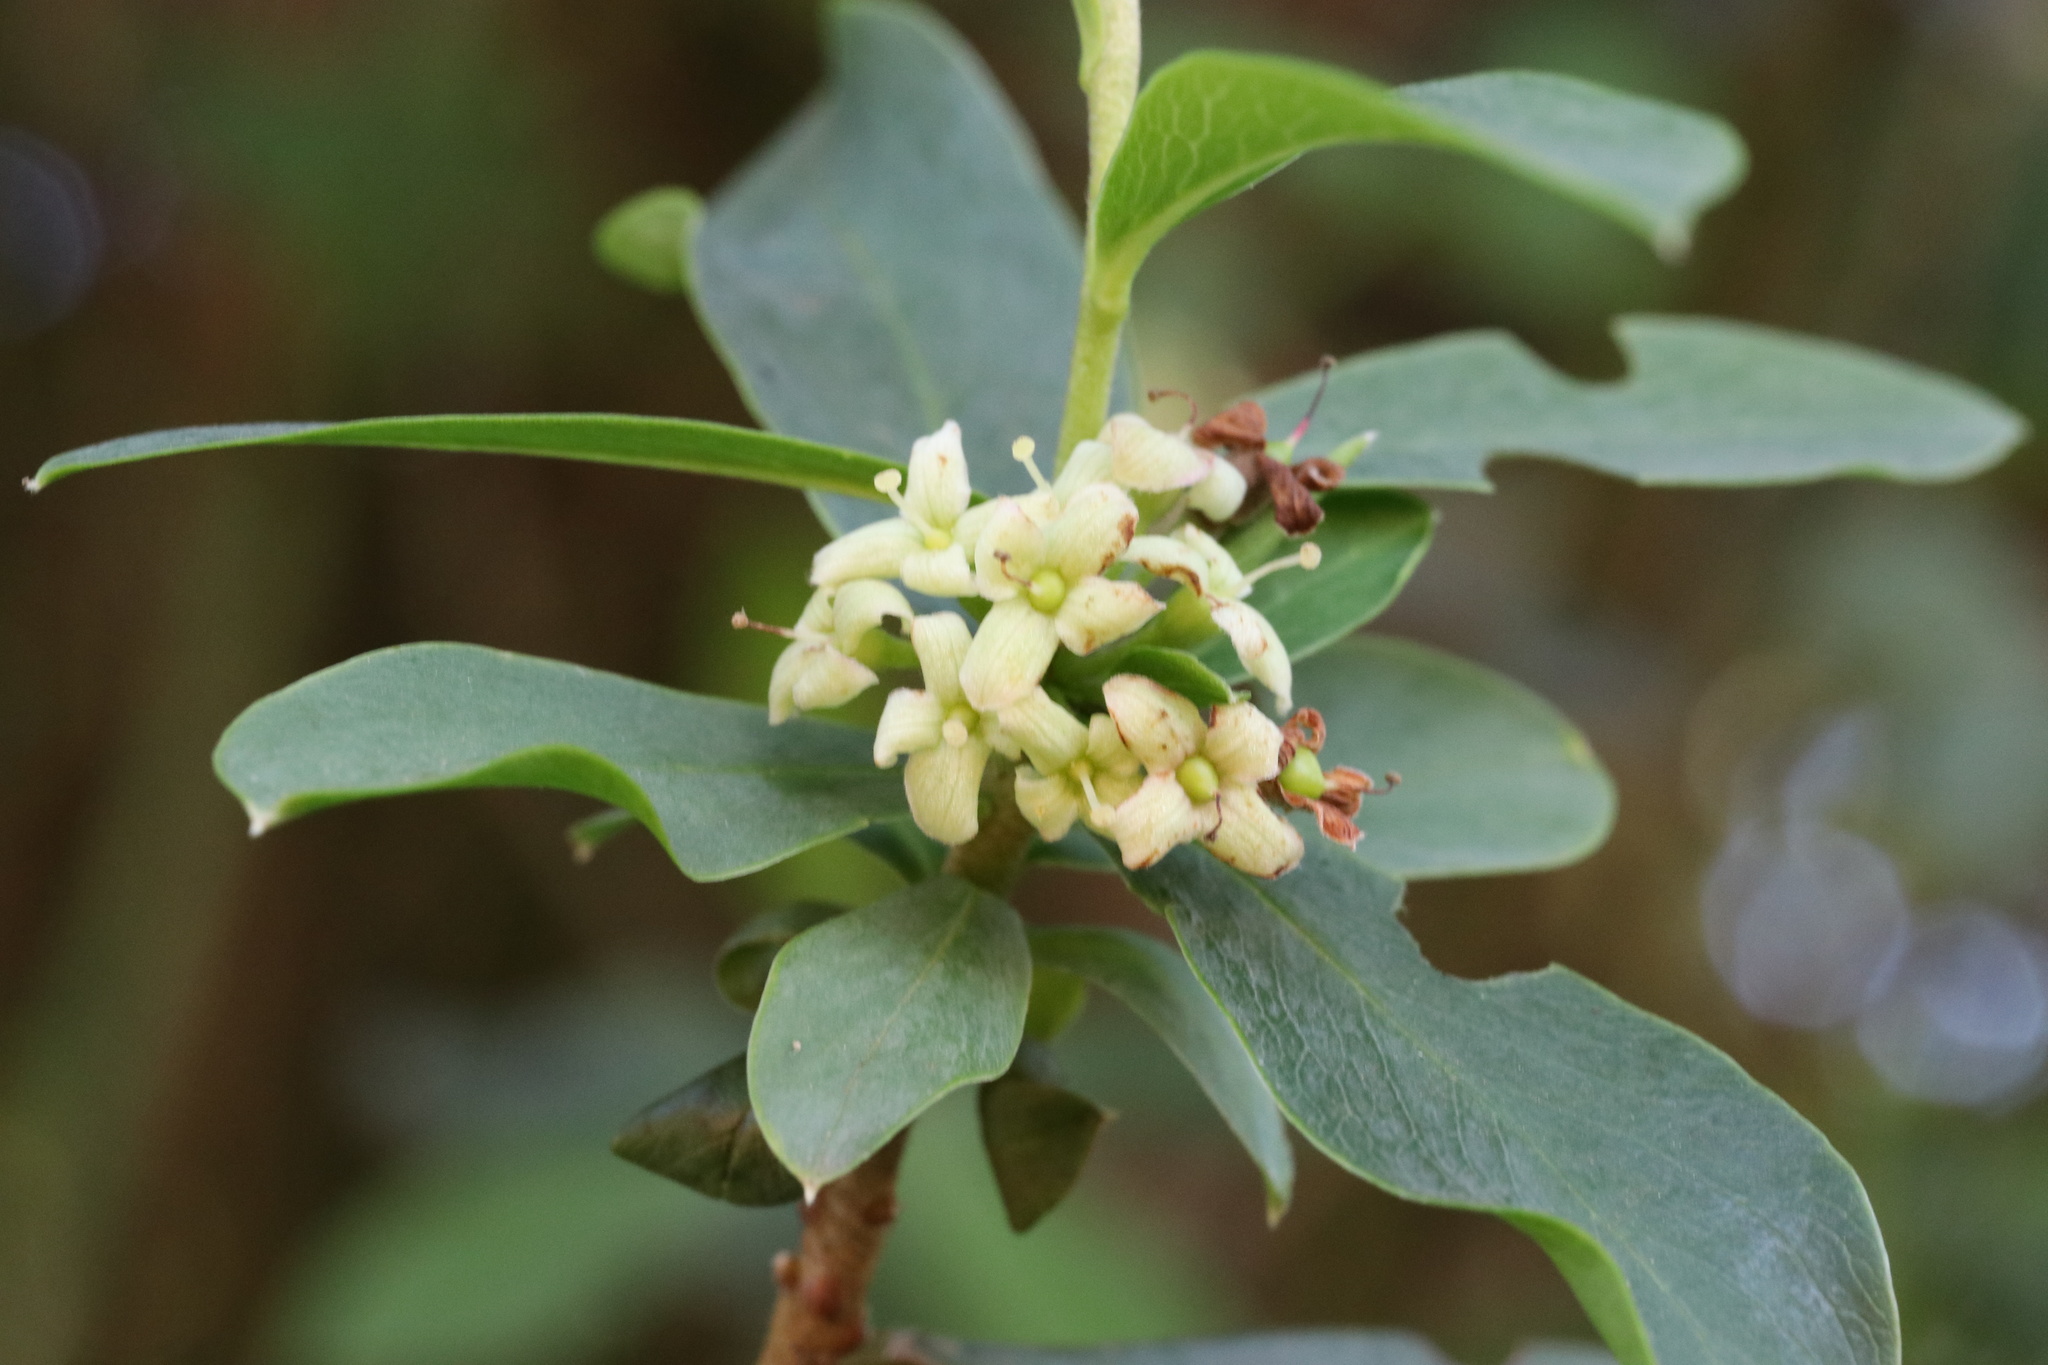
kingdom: Plantae
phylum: Tracheophyta
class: Magnoliopsida
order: Malvales
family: Thymelaeaceae
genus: Ovidia
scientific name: Ovidia andina
